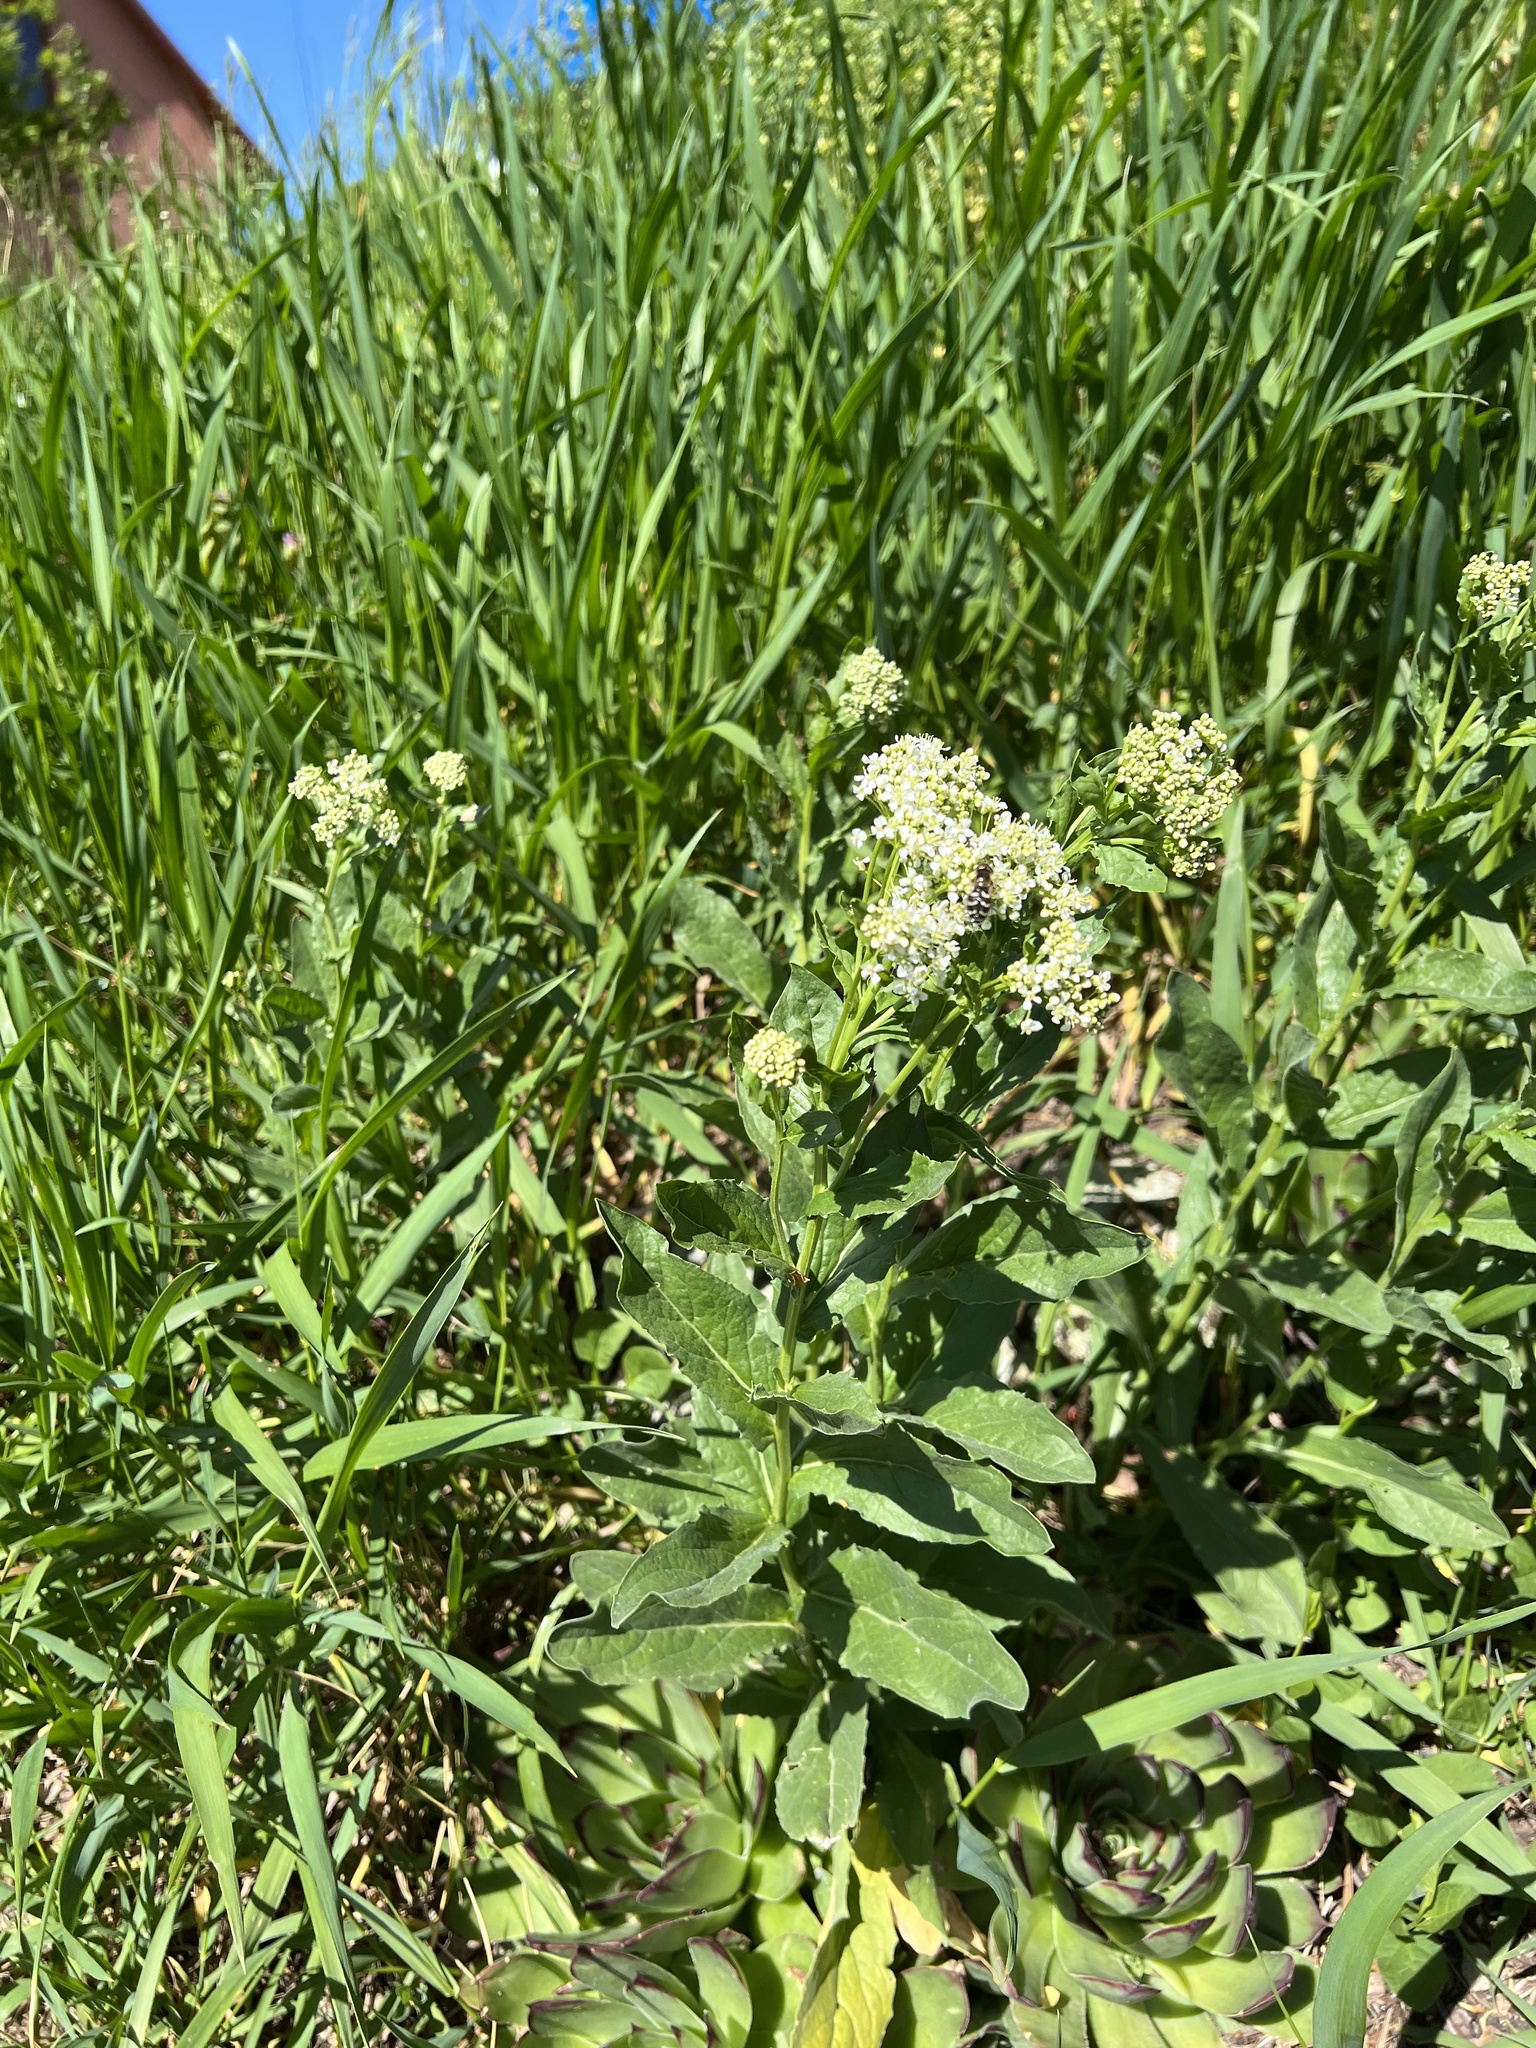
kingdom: Plantae
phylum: Tracheophyta
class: Magnoliopsida
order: Brassicales
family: Brassicaceae
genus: Lepidium
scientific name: Lepidium draba
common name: Hoary cress
